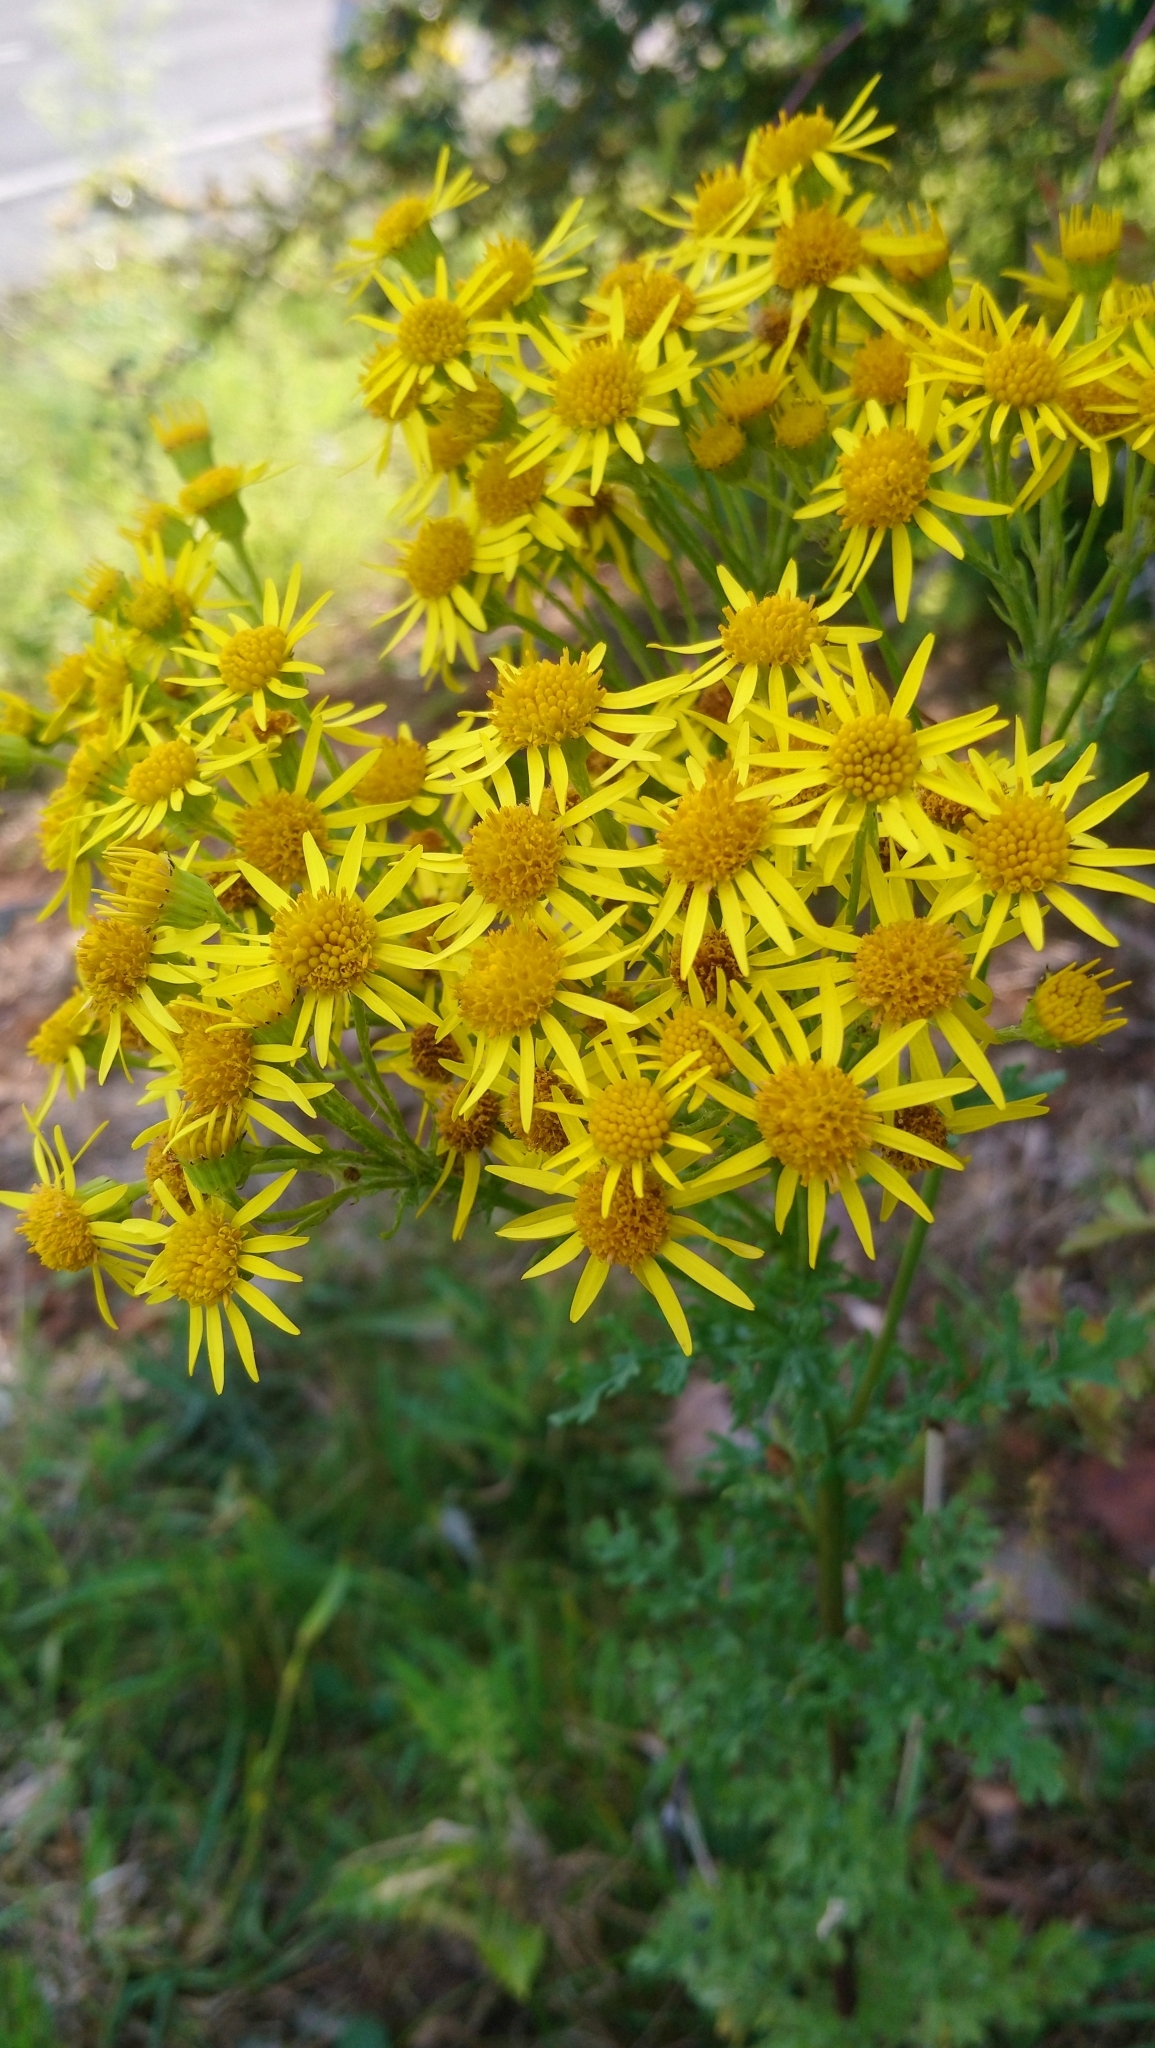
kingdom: Plantae
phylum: Tracheophyta
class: Magnoliopsida
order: Asterales
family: Asteraceae
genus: Jacobaea
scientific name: Jacobaea vulgaris
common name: Stinking willie
